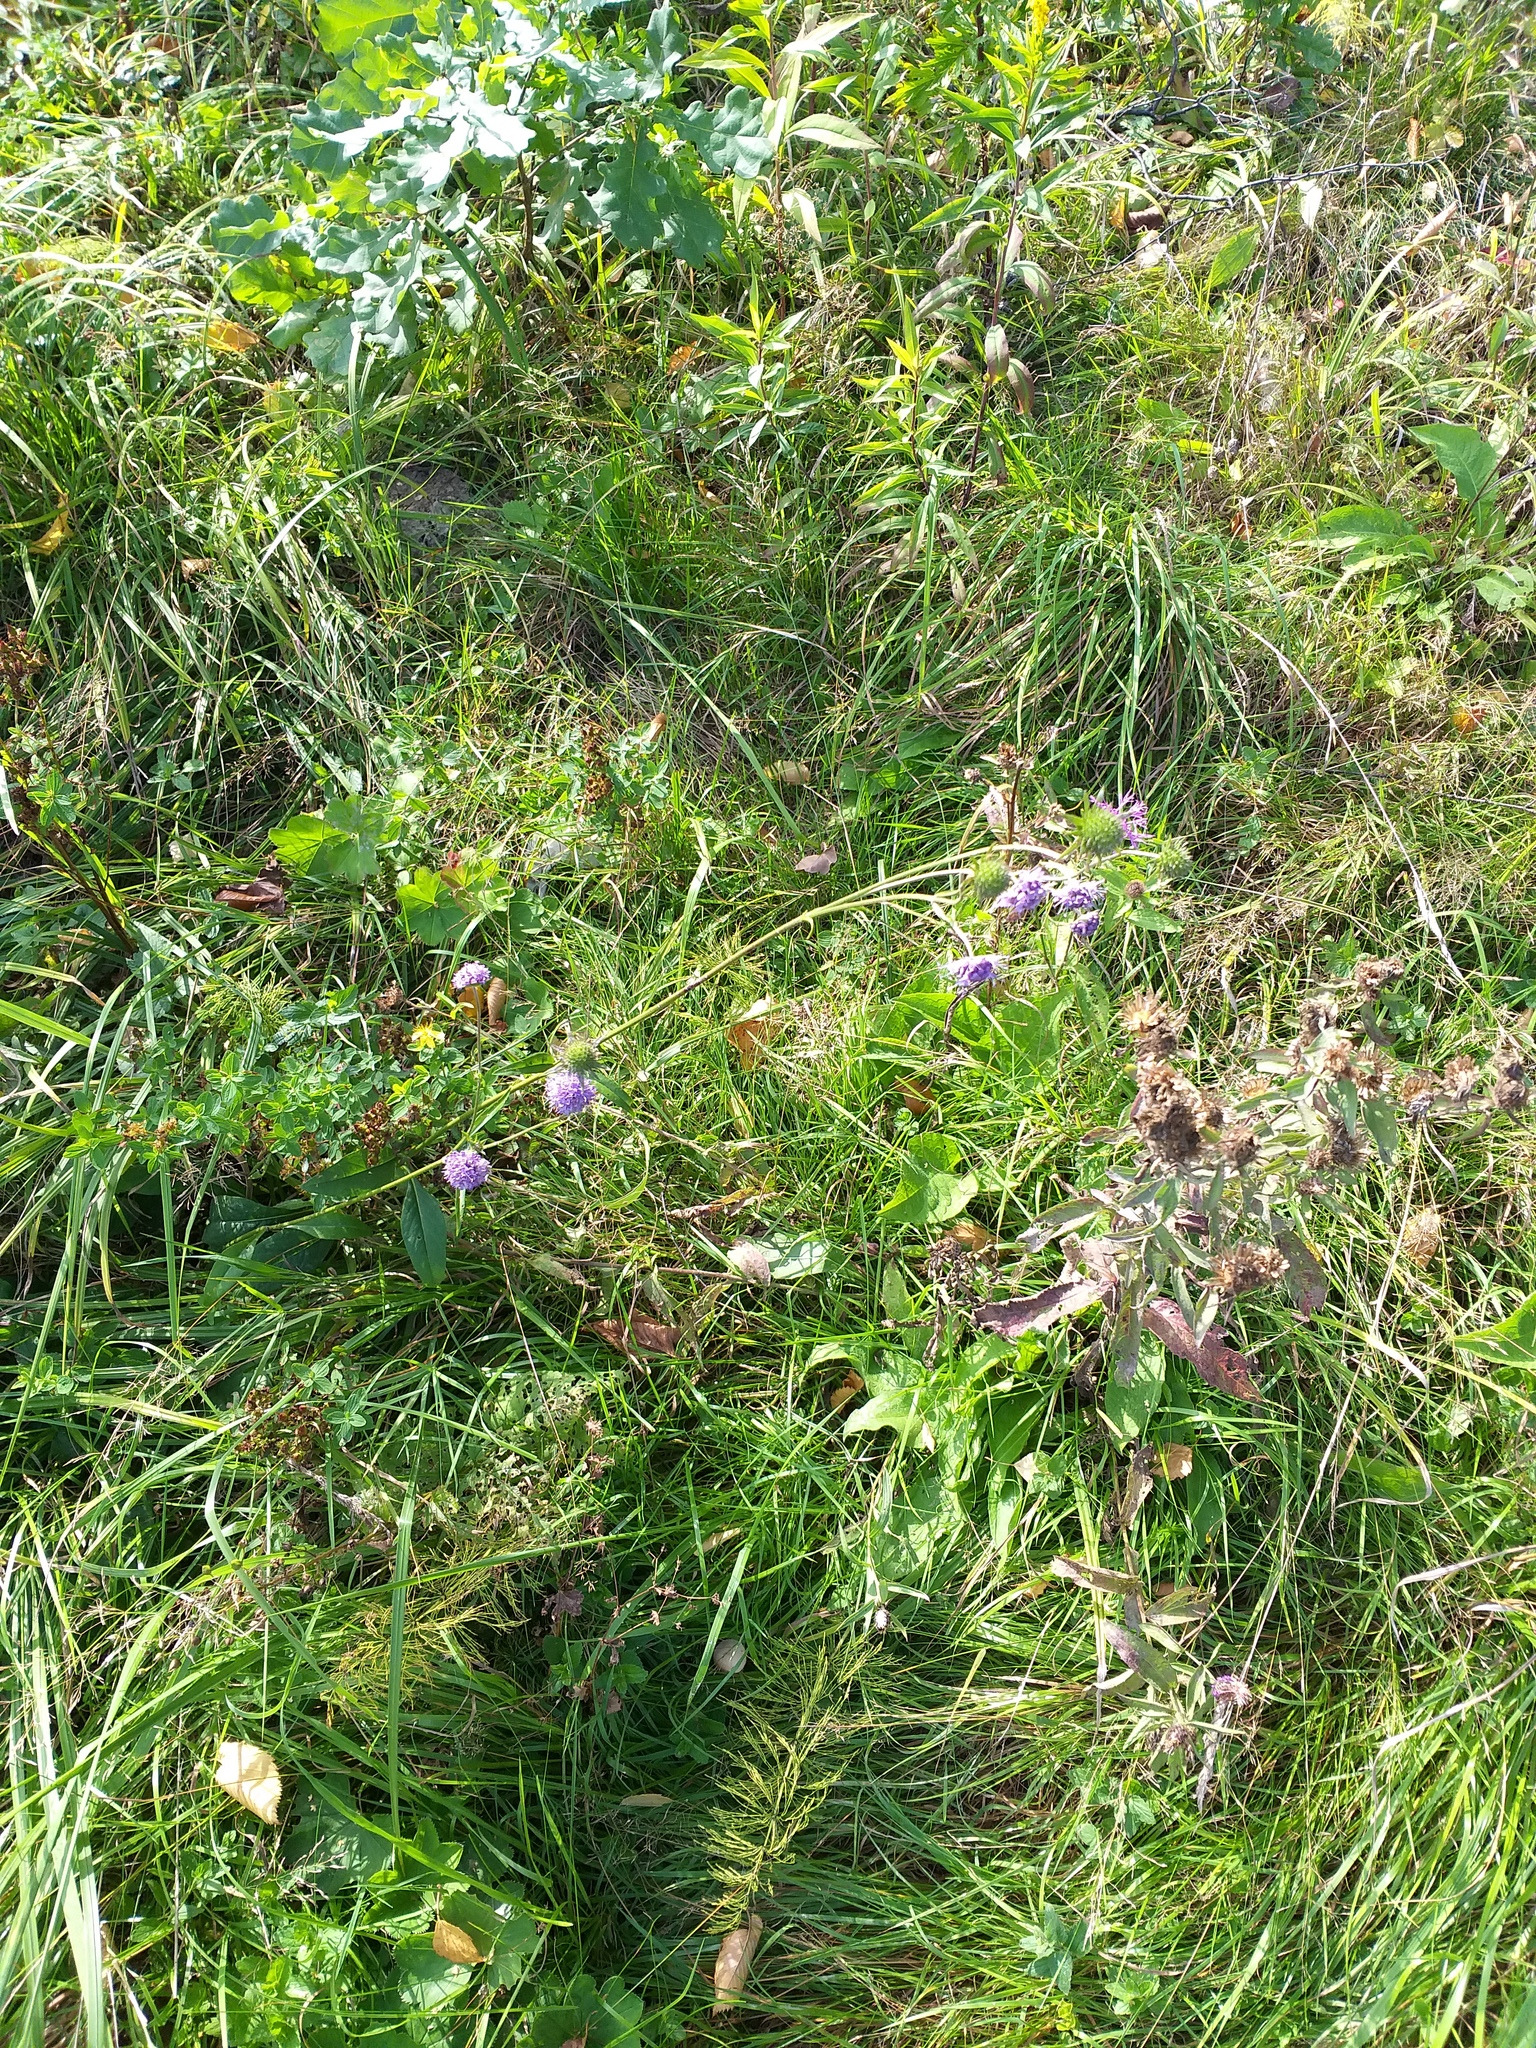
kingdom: Plantae
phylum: Tracheophyta
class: Magnoliopsida
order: Dipsacales
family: Caprifoliaceae
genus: Succisa
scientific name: Succisa pratensis
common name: Devil's-bit
